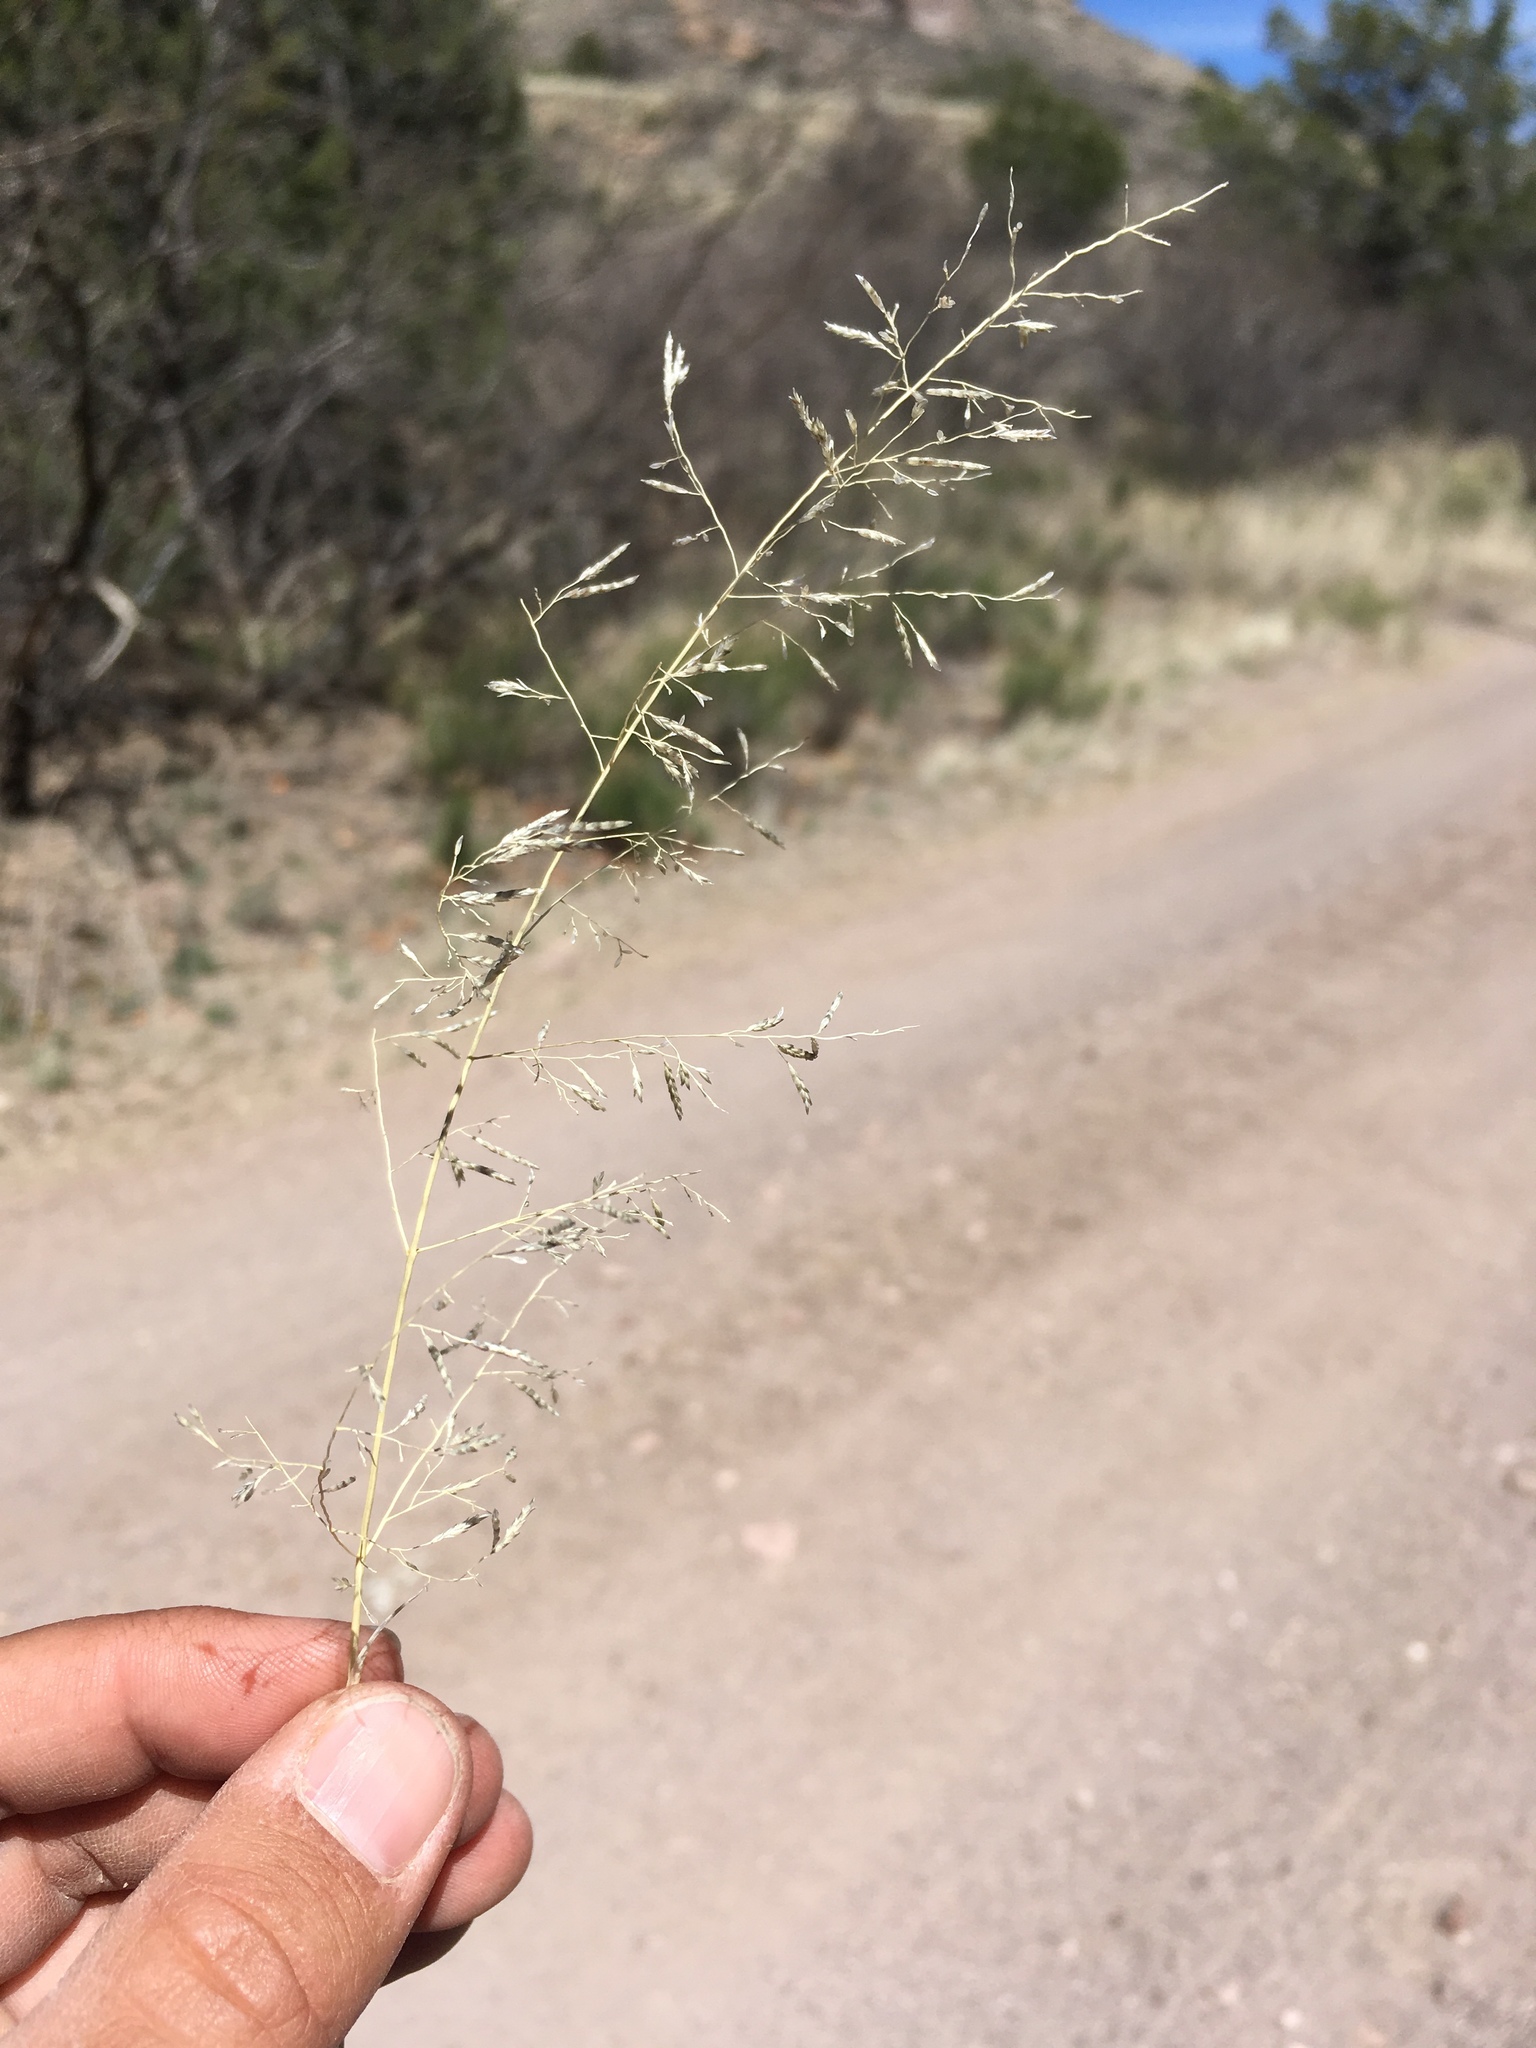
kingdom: Plantae
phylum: Tracheophyta
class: Liliopsida
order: Poales
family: Poaceae
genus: Eragrostis
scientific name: Eragrostis lehmanniana
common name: Lehmann lovegrass
